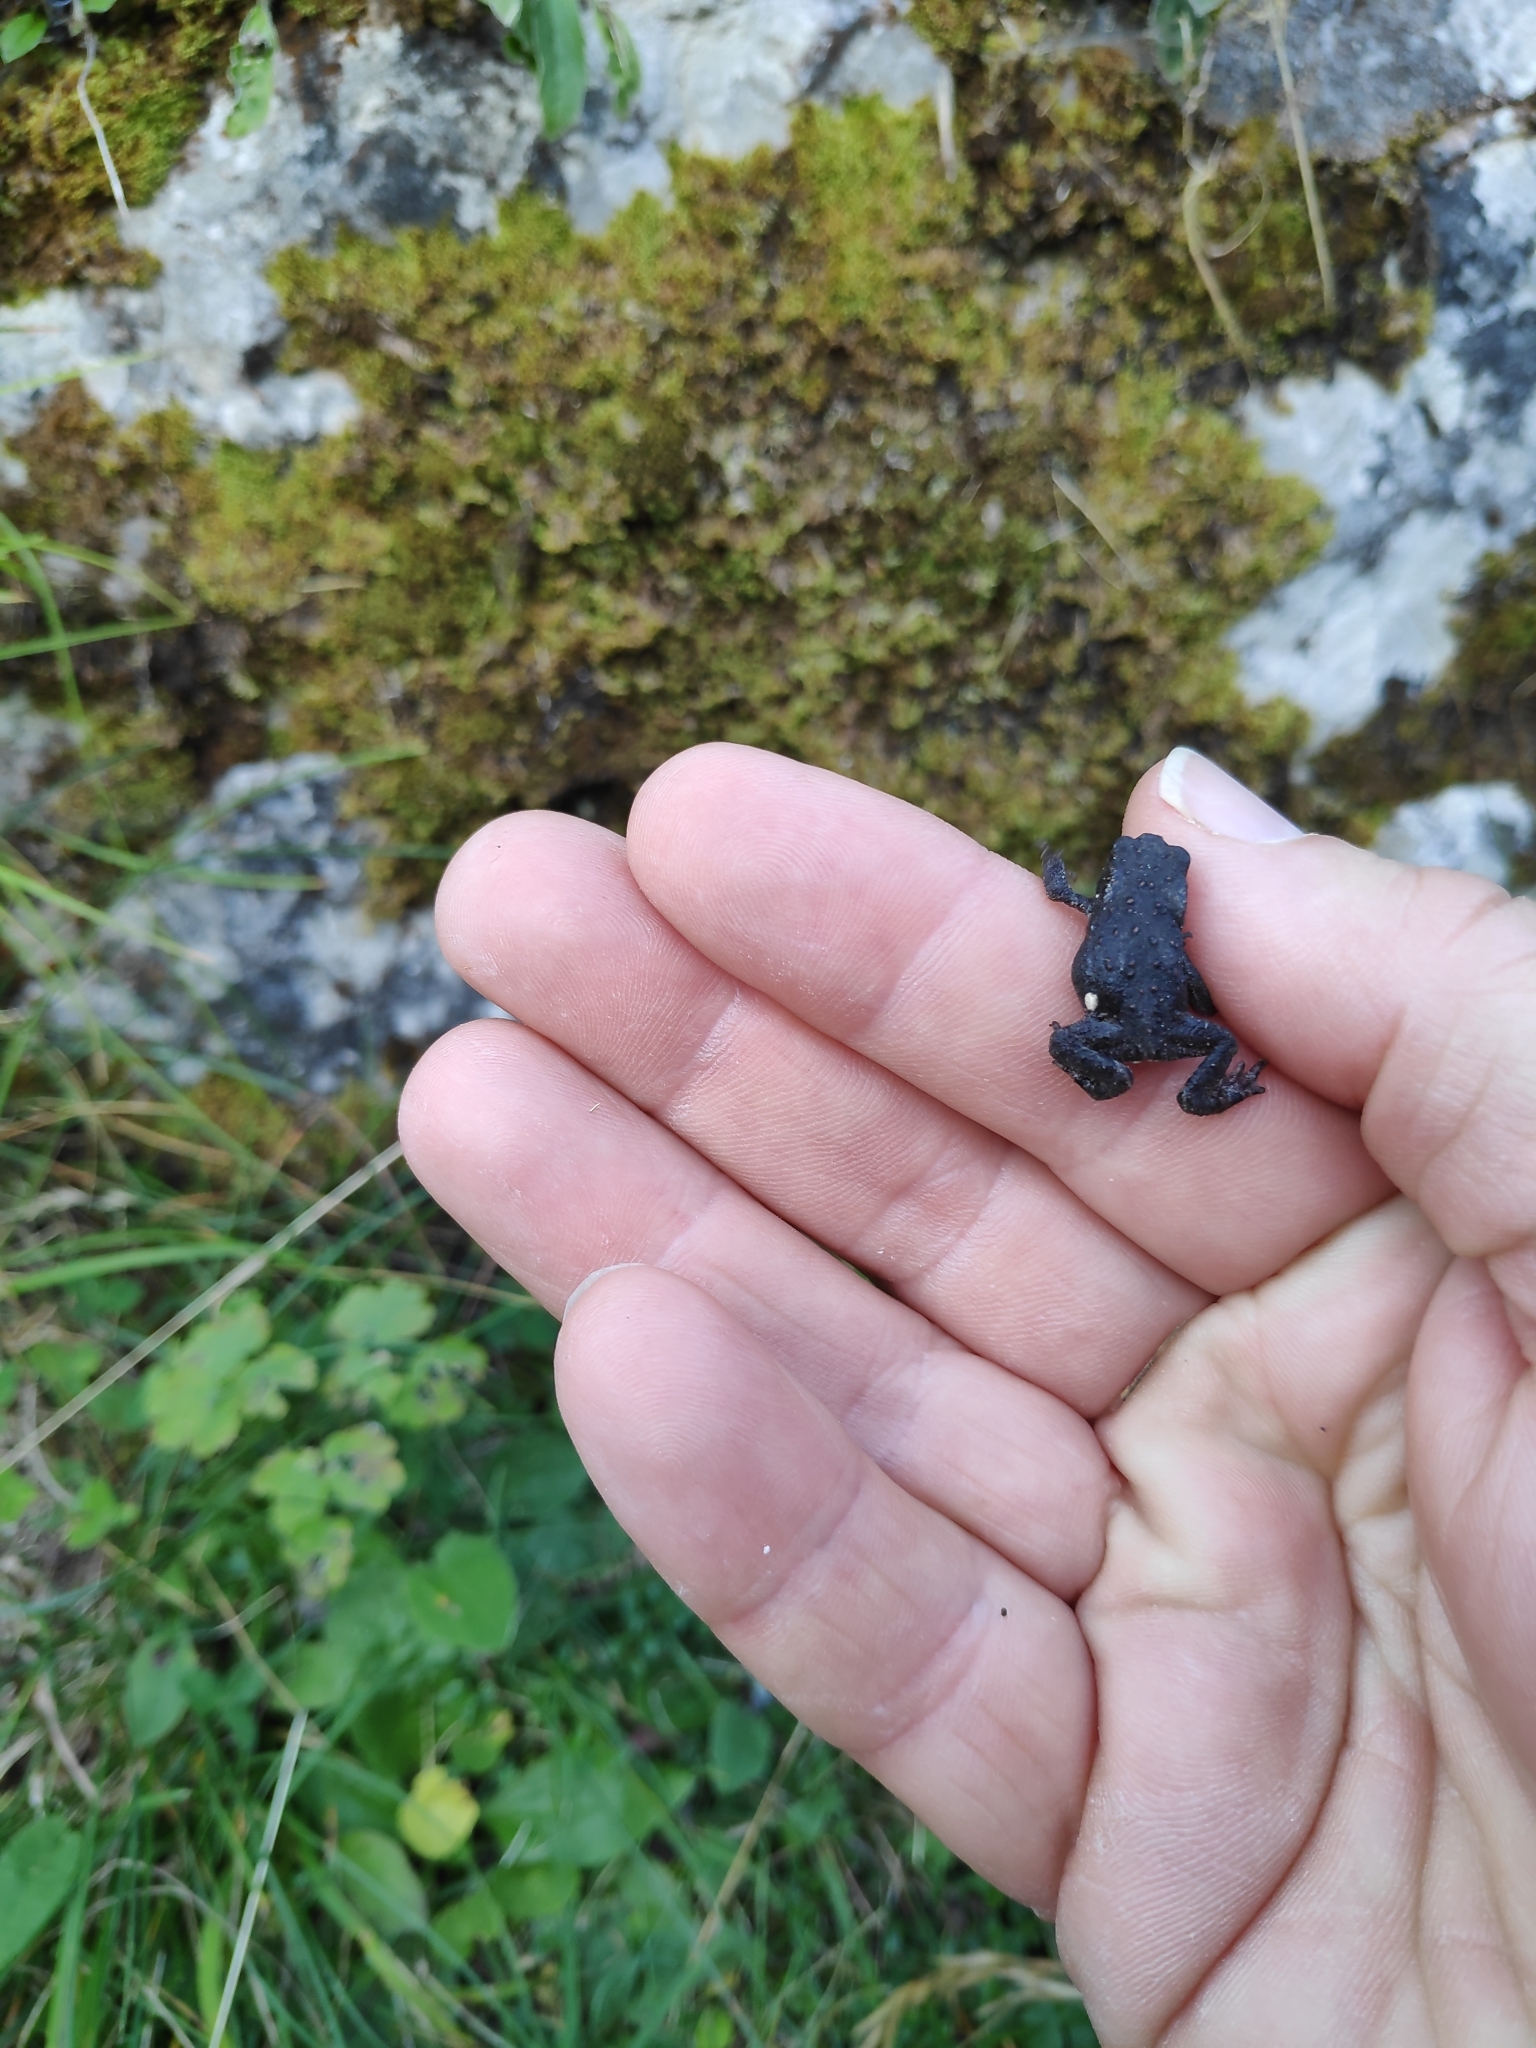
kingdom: Animalia
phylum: Chordata
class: Amphibia
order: Anura
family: Bufonidae
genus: Bufo
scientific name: Bufo bufo
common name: Common toad
